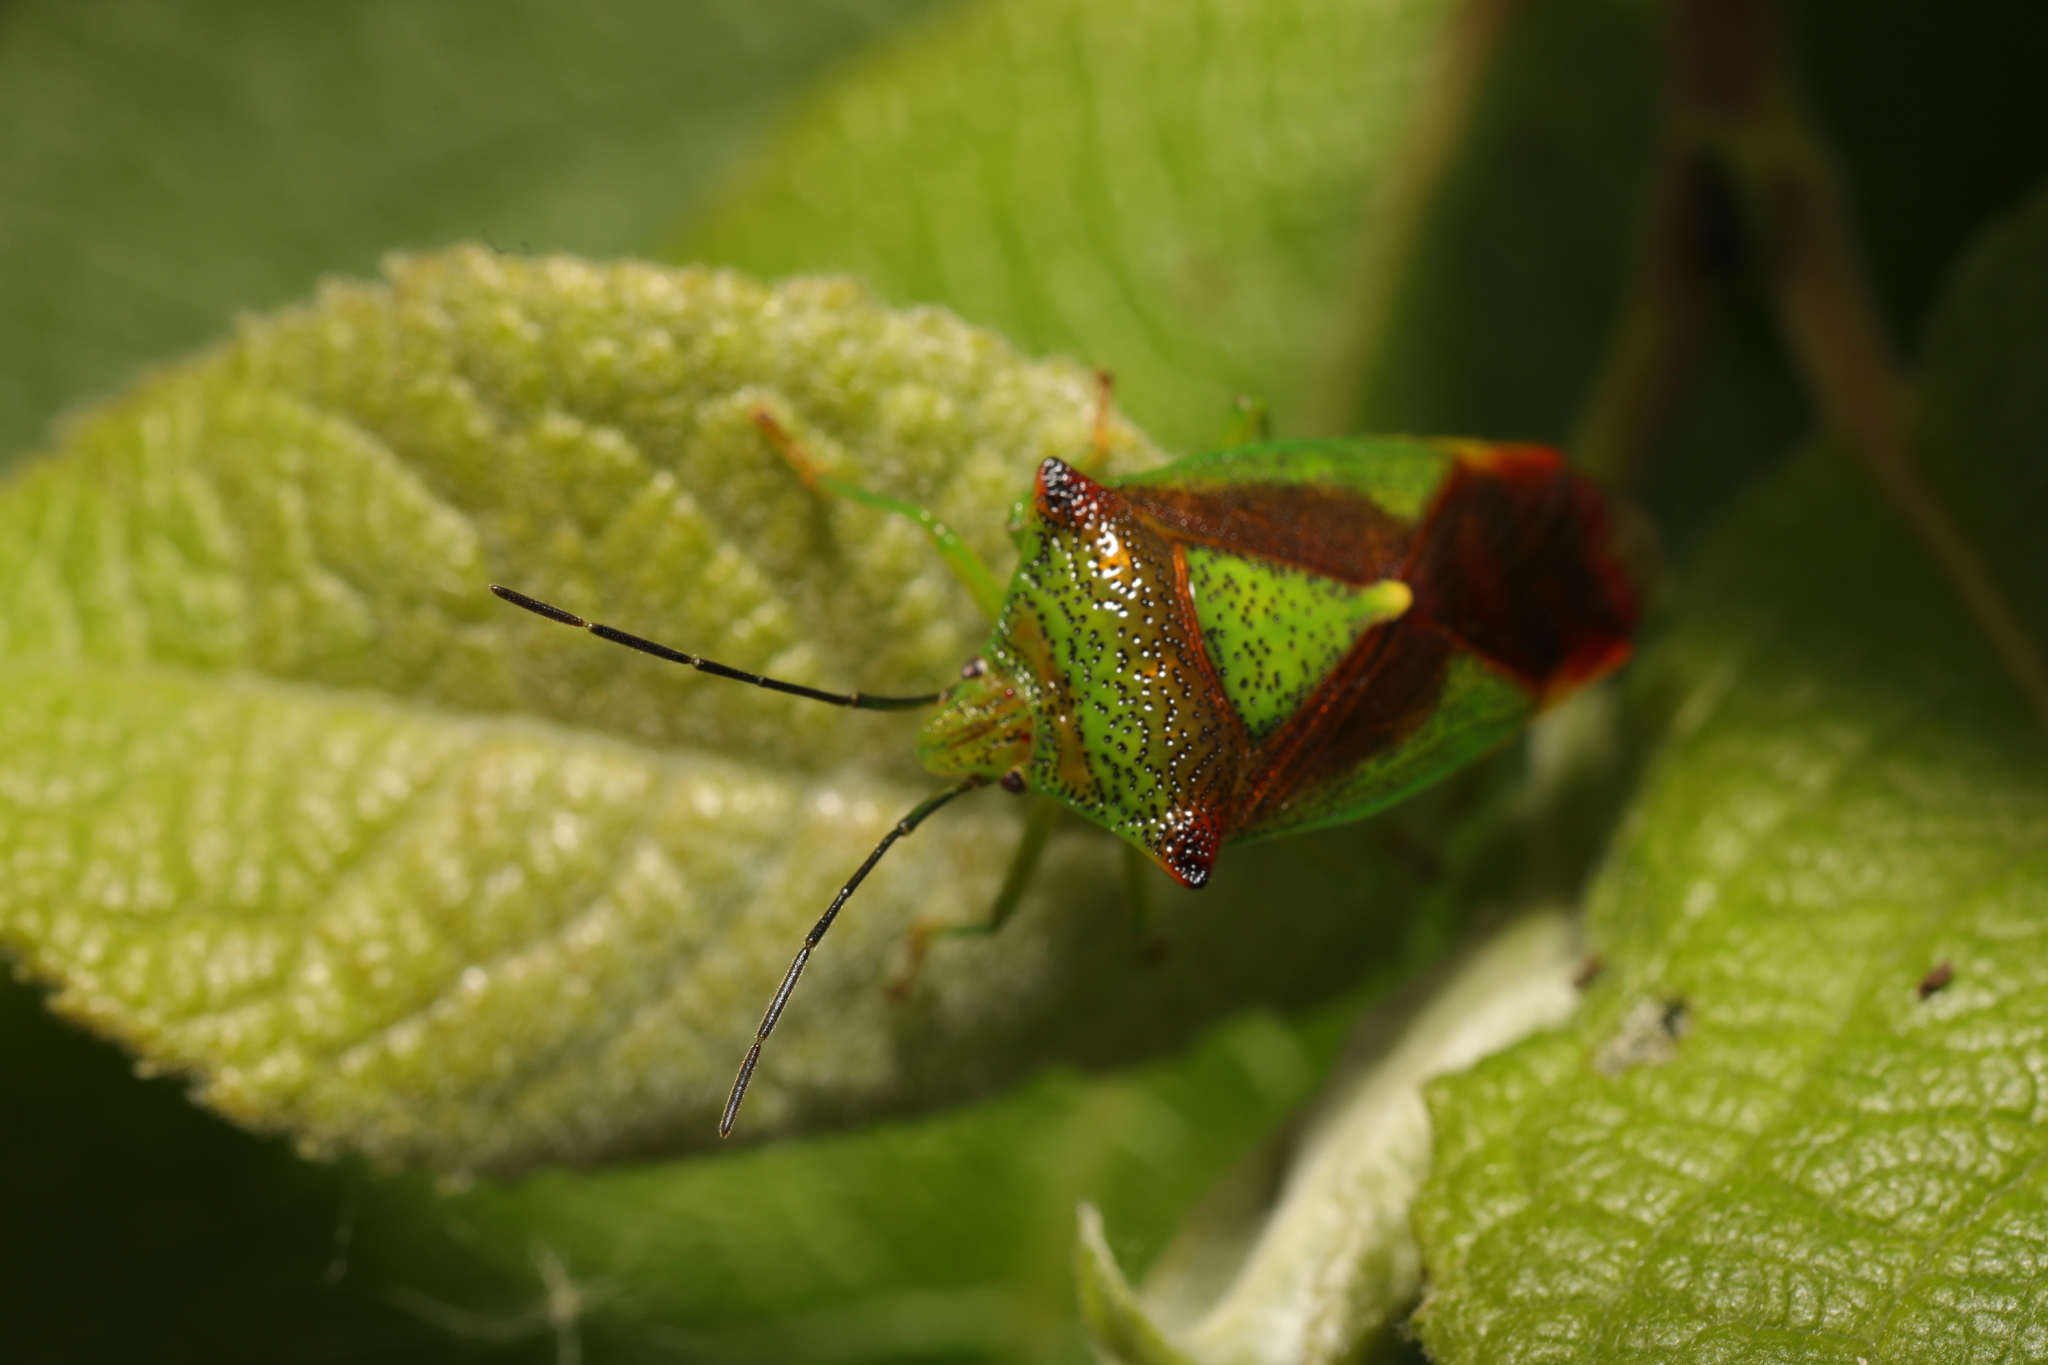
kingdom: Animalia
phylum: Arthropoda
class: Insecta
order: Hemiptera
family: Acanthosomatidae
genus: Acanthosoma
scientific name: Acanthosoma haemorrhoidale
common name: Hawthorn shieldbug
